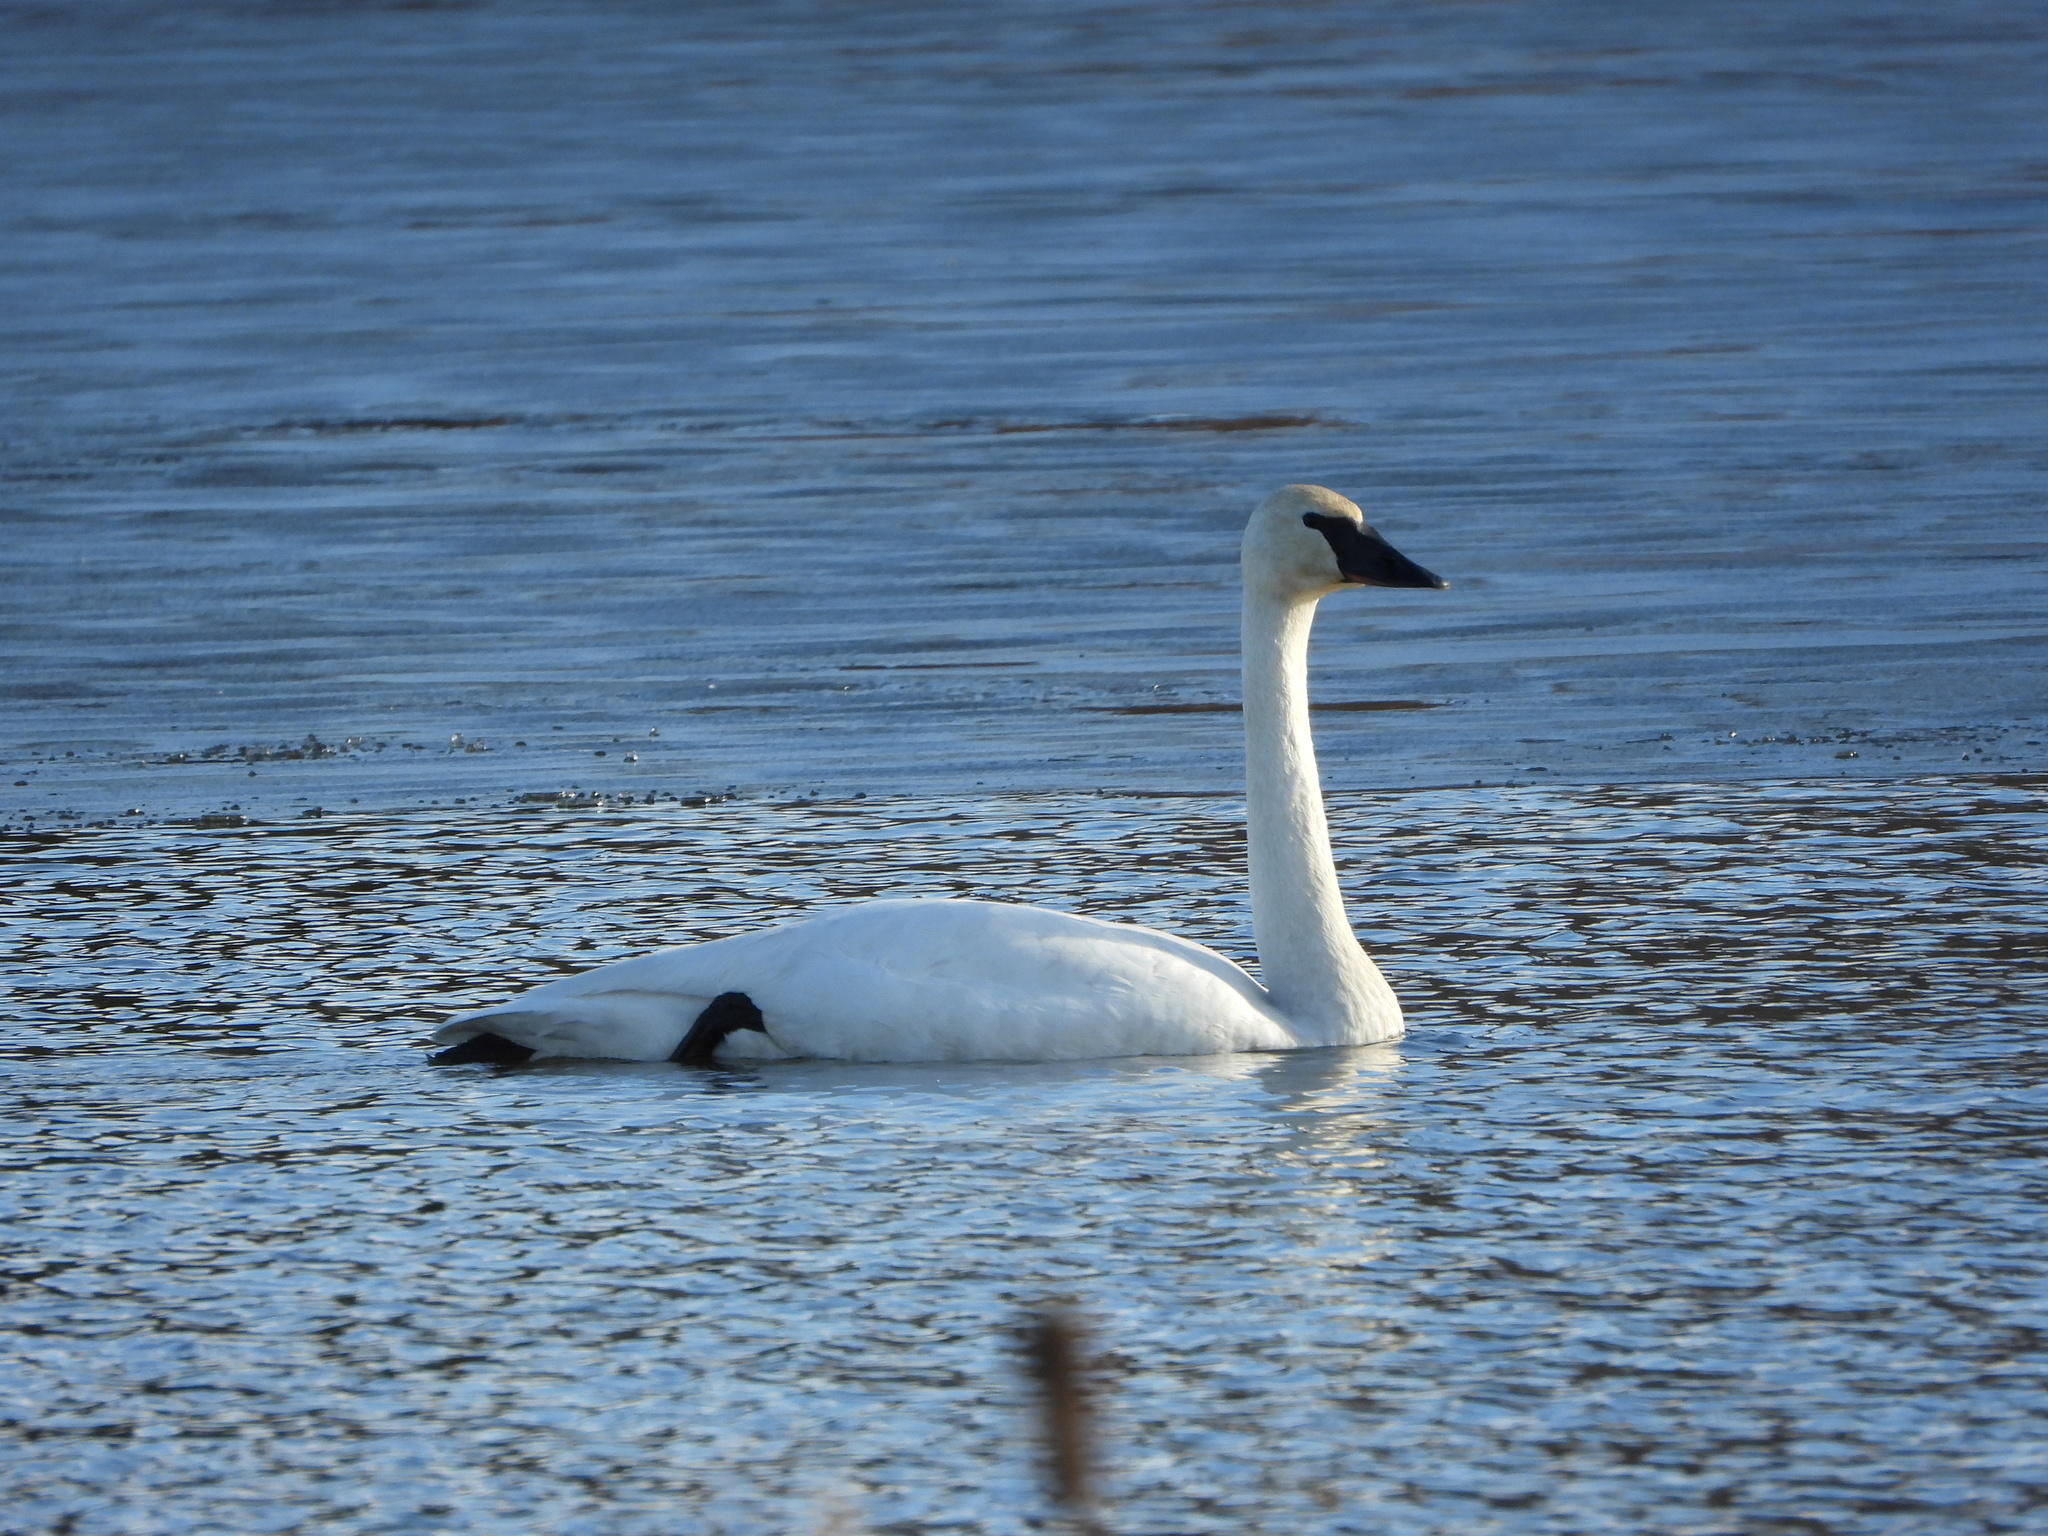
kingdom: Animalia
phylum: Chordata
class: Aves
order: Anseriformes
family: Anatidae
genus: Cygnus
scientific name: Cygnus buccinator
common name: Trumpeter swan
